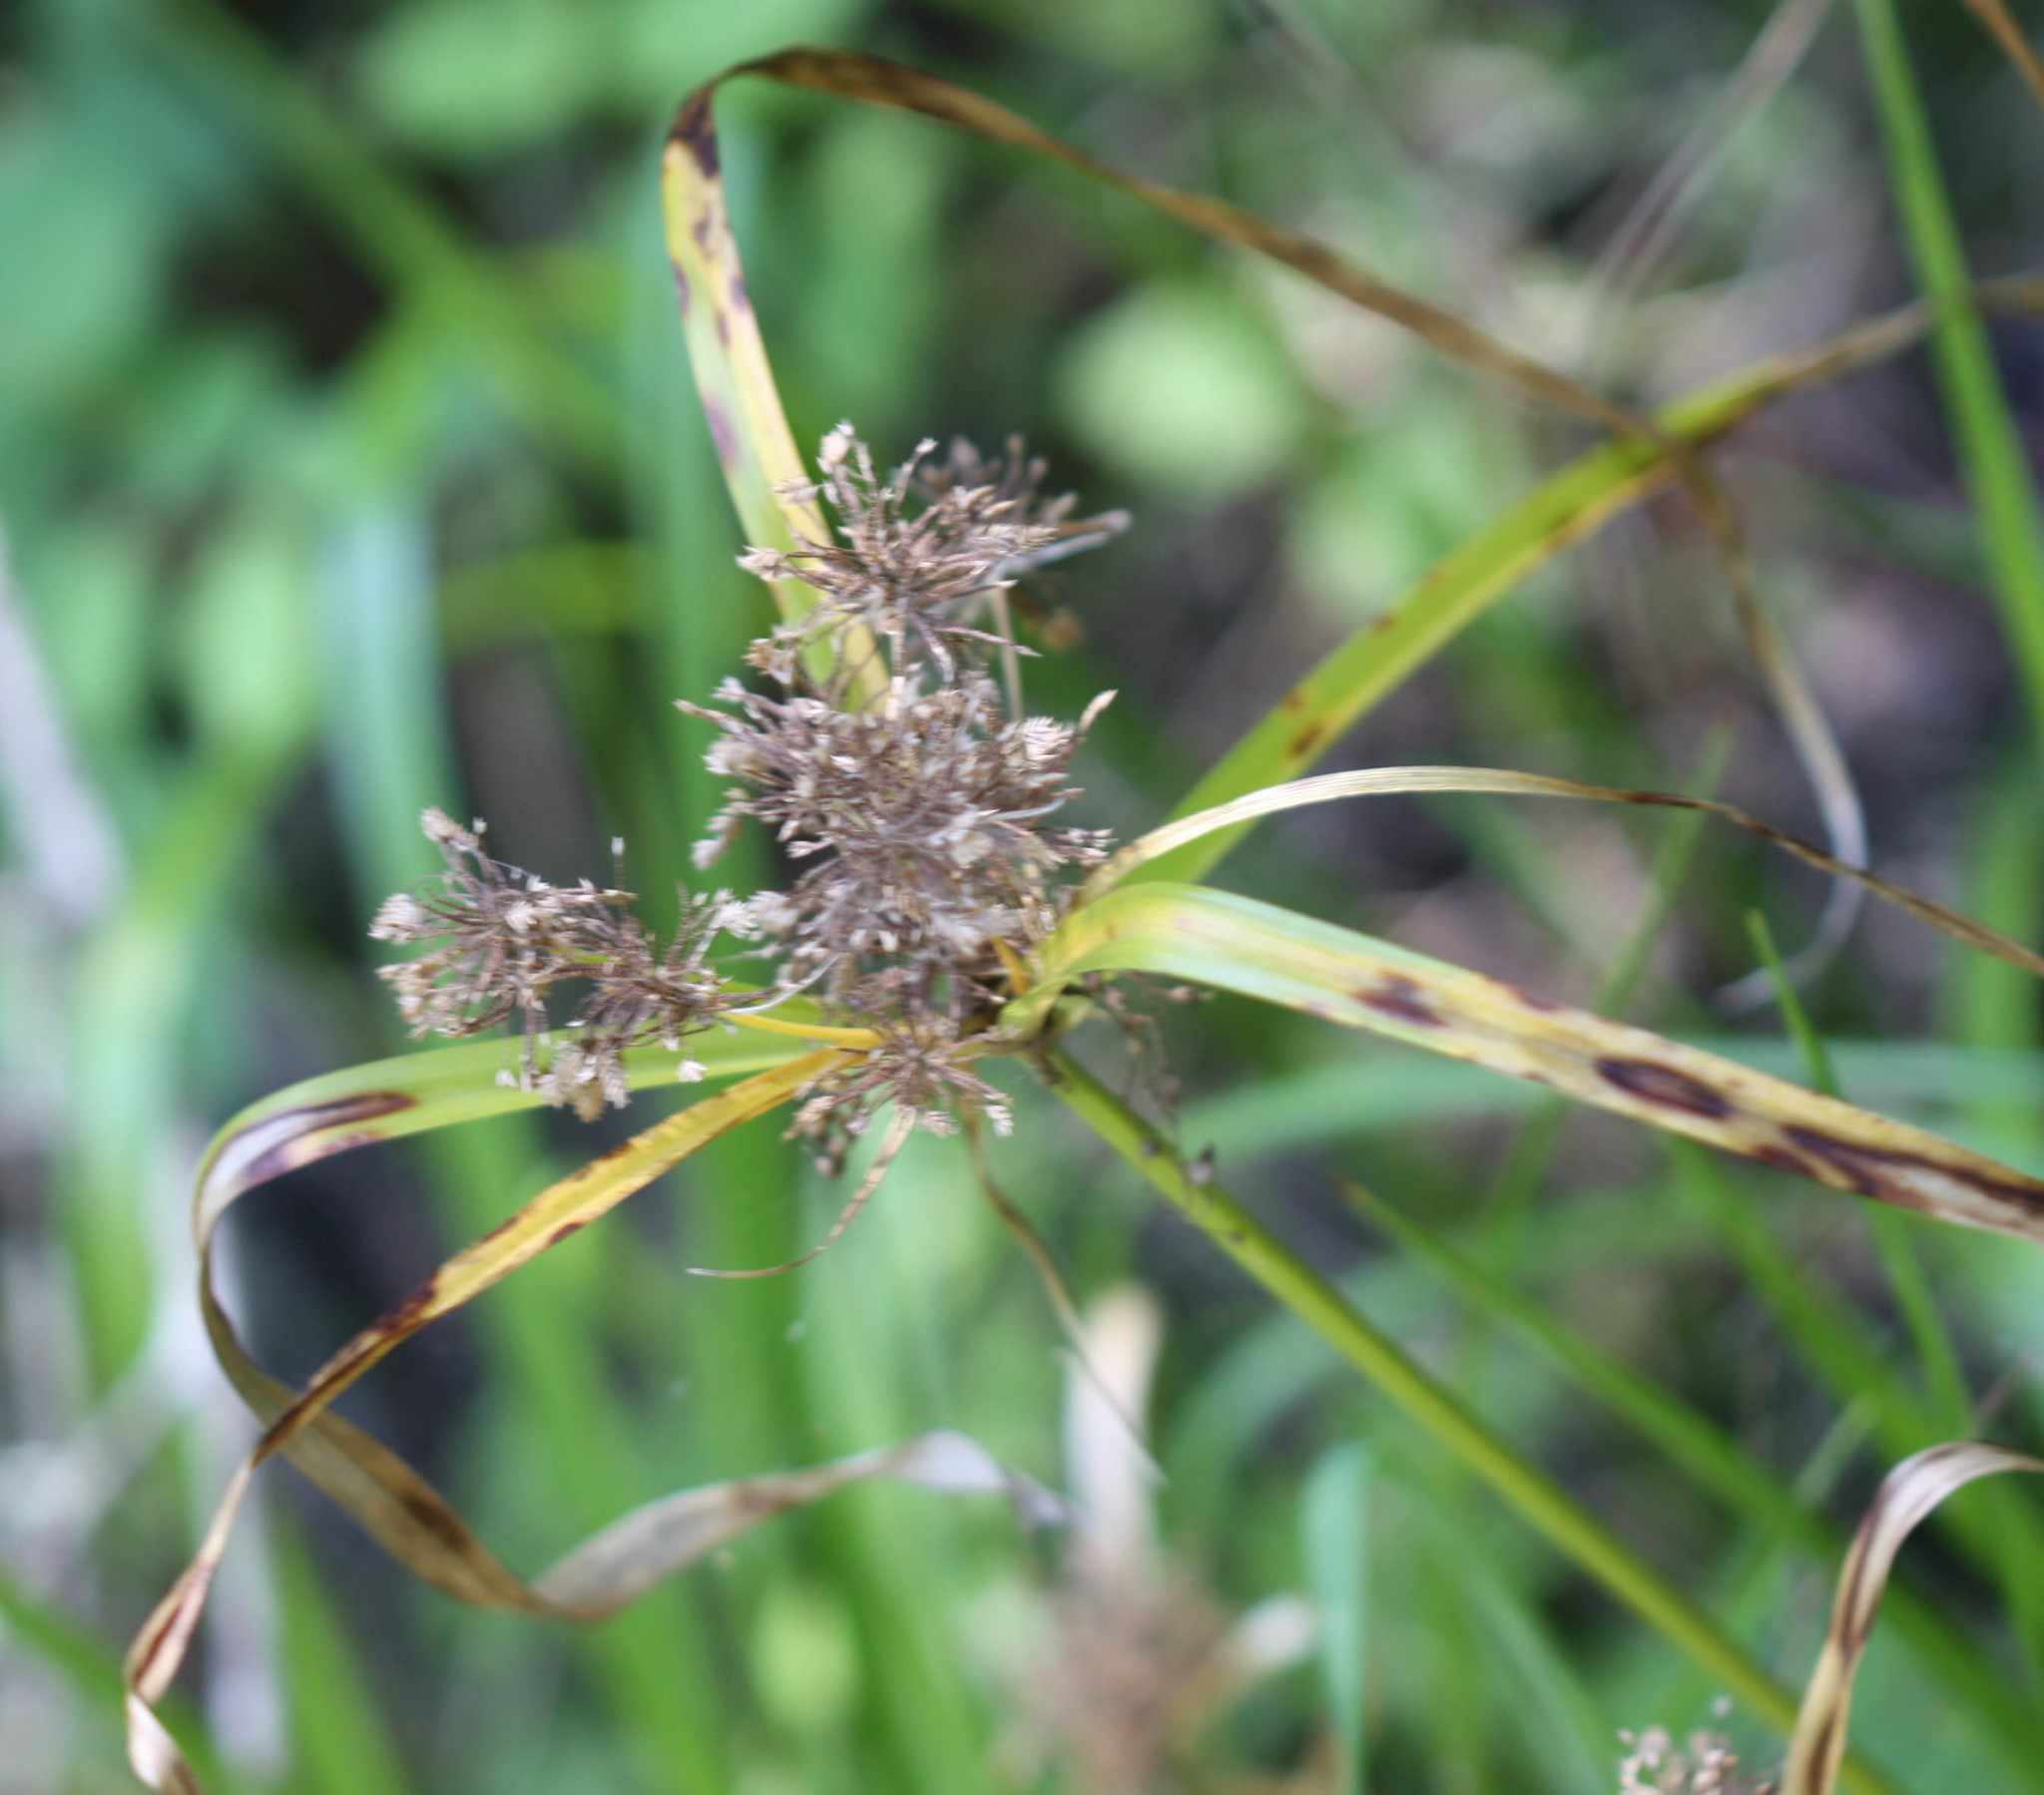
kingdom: Plantae
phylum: Tracheophyta
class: Liliopsida
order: Poales
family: Cyperaceae
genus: Cyperus
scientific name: Cyperus eragrostis
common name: Tall flatsedge
